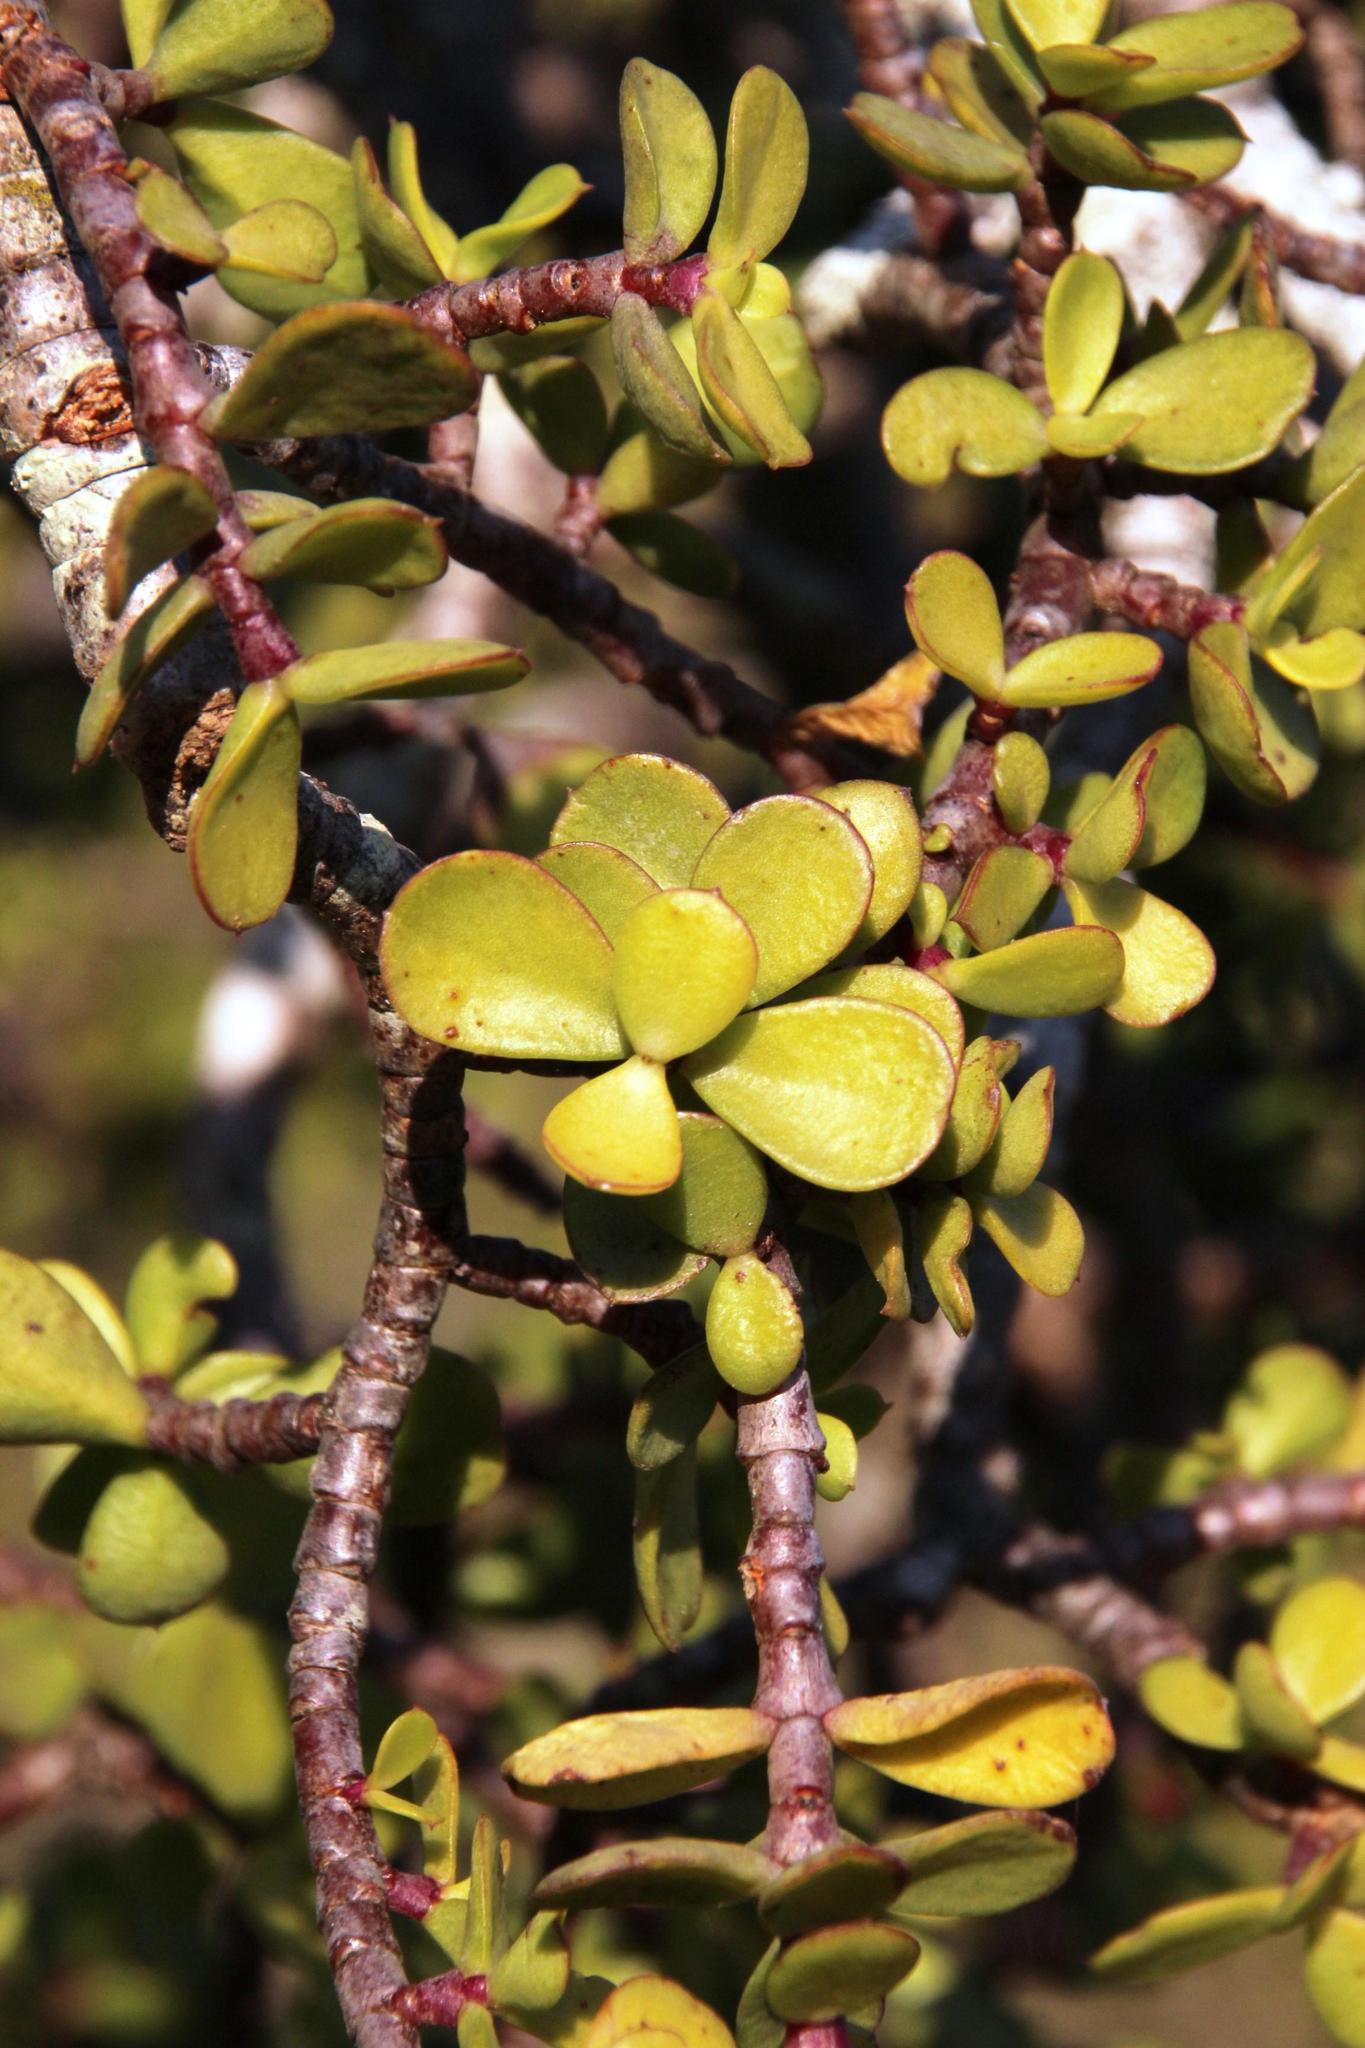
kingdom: Plantae
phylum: Tracheophyta
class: Magnoliopsida
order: Caryophyllales
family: Didiereaceae
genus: Portulacaria
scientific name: Portulacaria afra
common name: Elephant-bush
